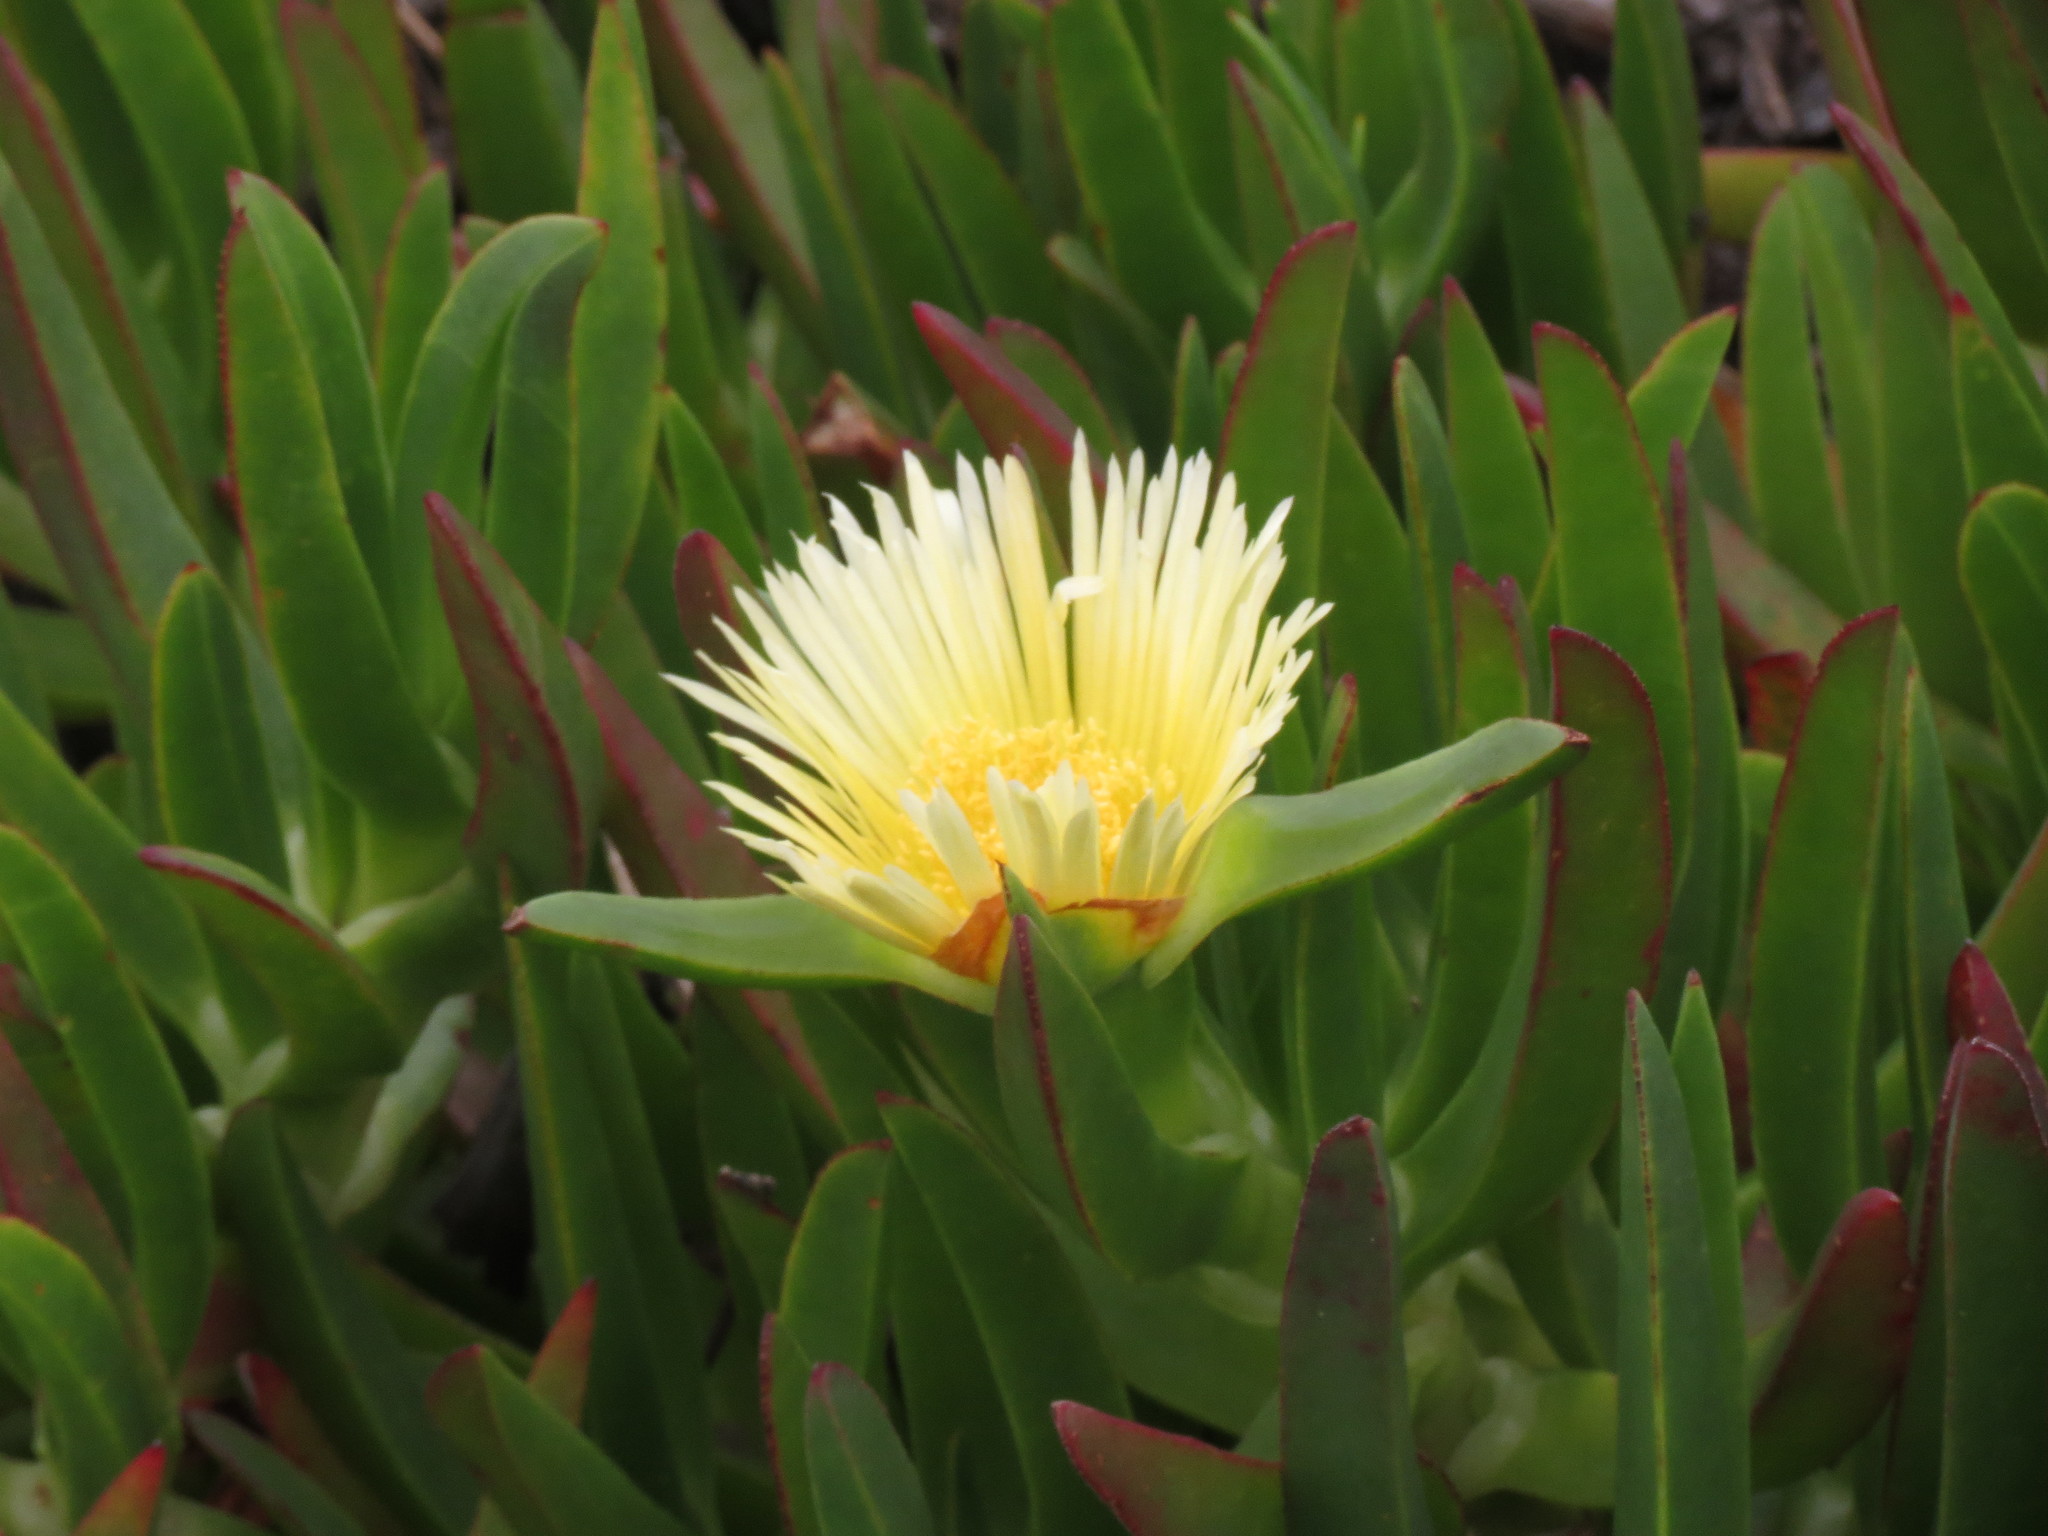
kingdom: Plantae
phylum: Tracheophyta
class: Magnoliopsida
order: Caryophyllales
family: Aizoaceae
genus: Carpobrotus
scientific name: Carpobrotus edulis
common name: Hottentot-fig
